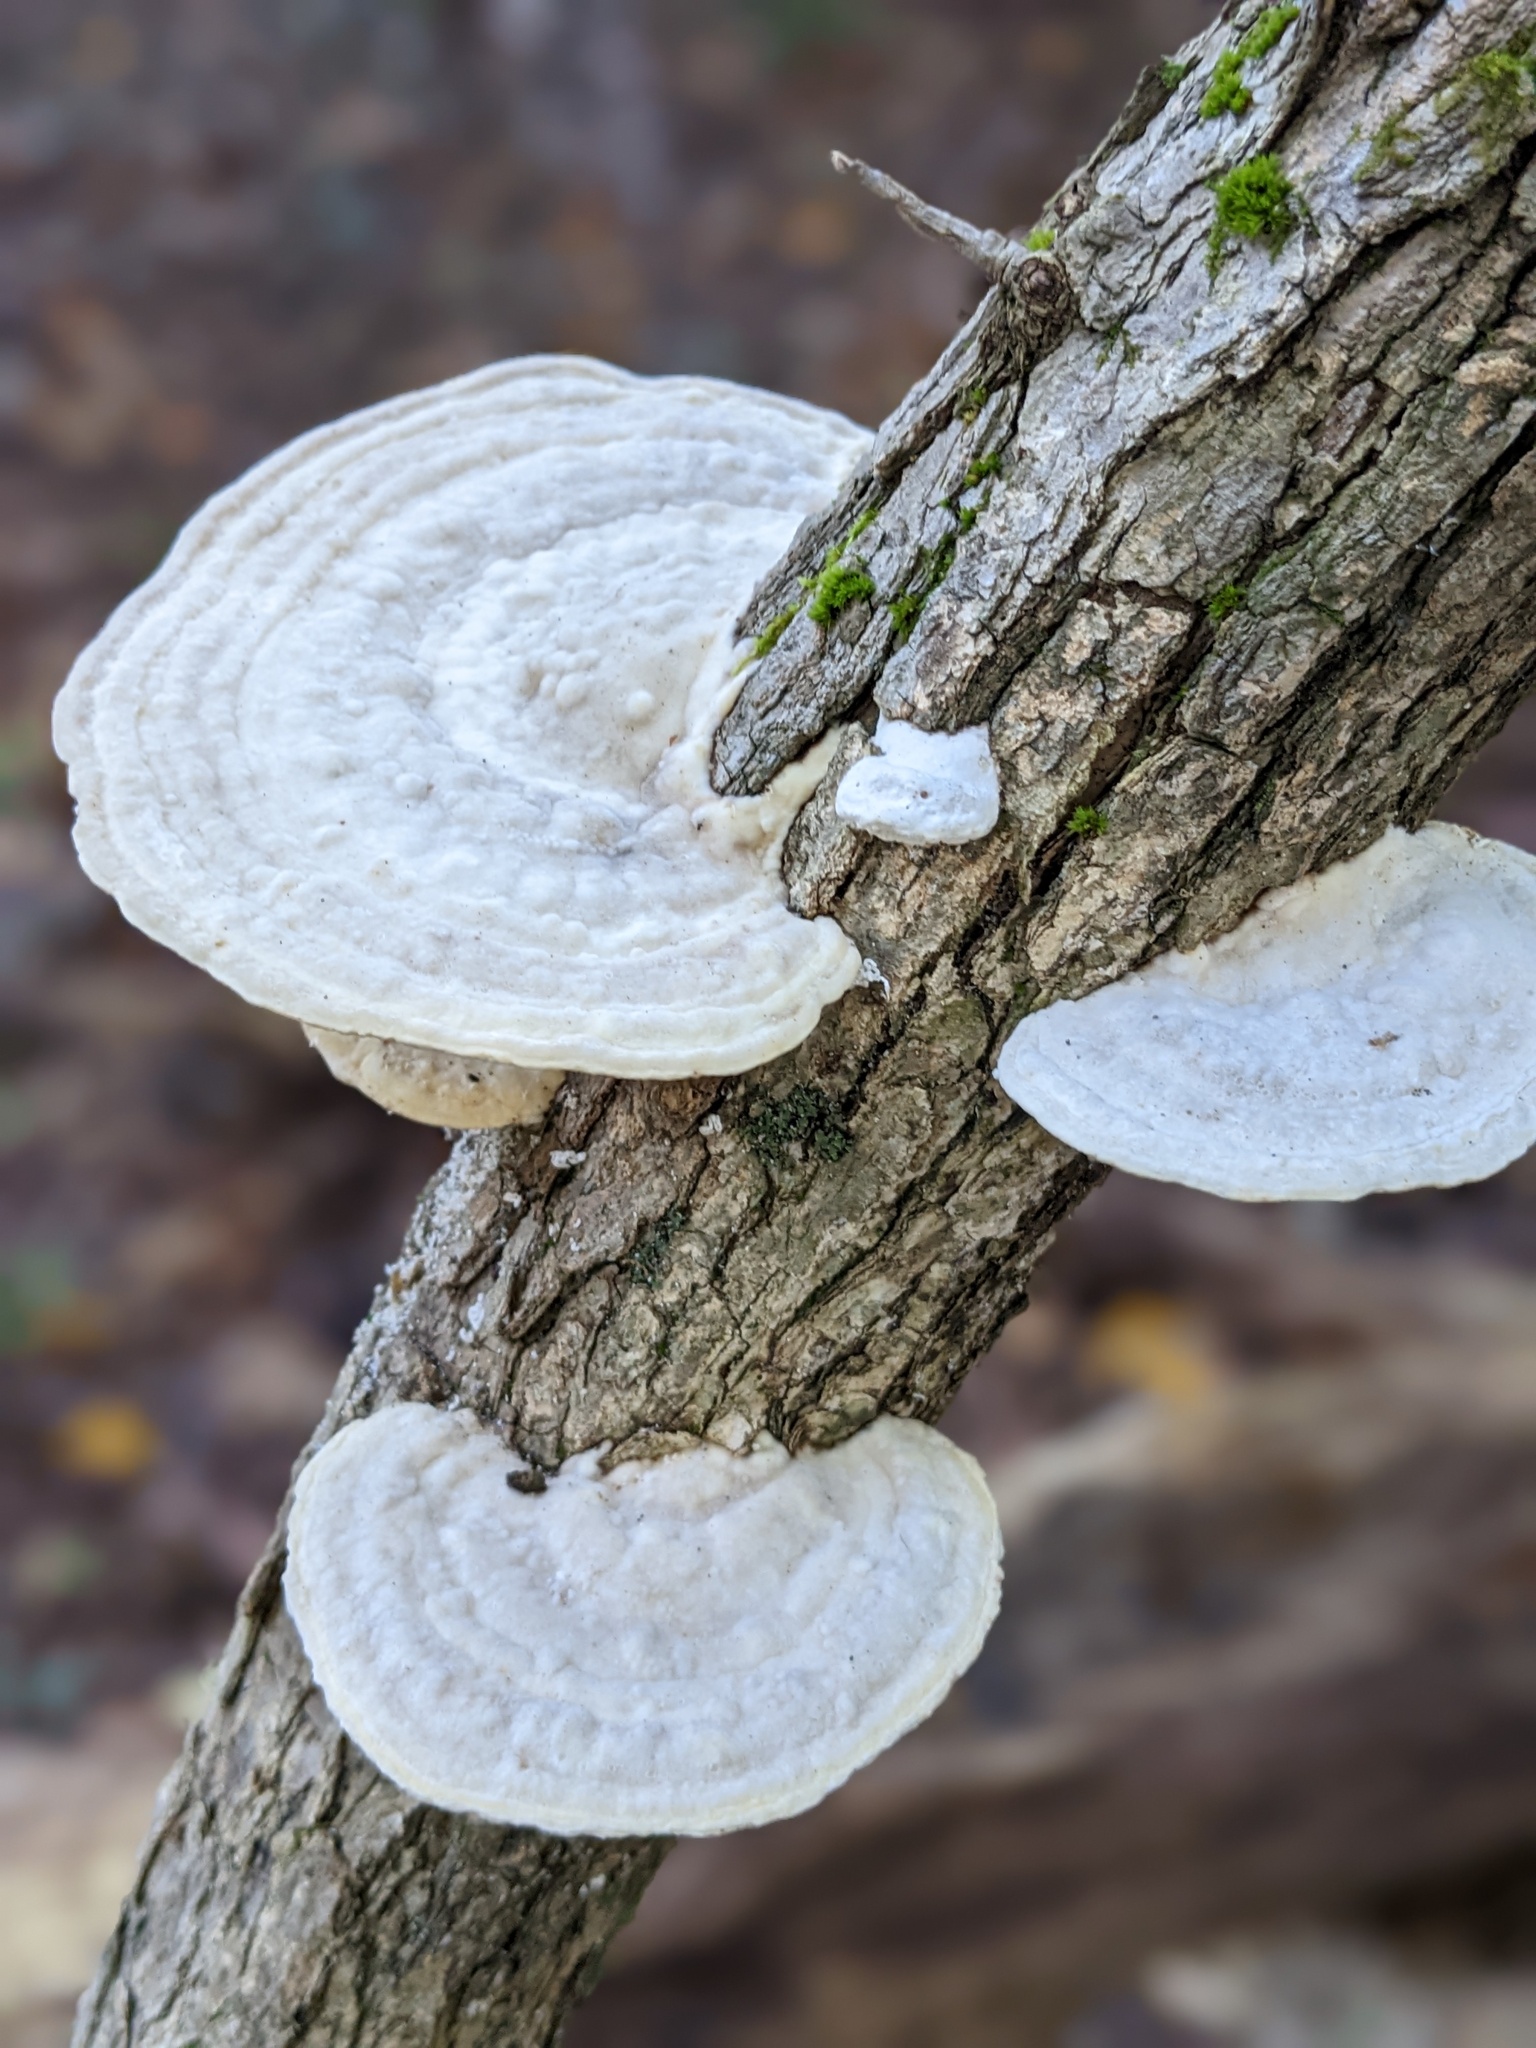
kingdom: Fungi
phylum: Basidiomycota
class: Agaricomycetes
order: Polyporales
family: Polyporaceae
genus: Trametes
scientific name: Trametes gibbosa
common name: Lumpy bracket
